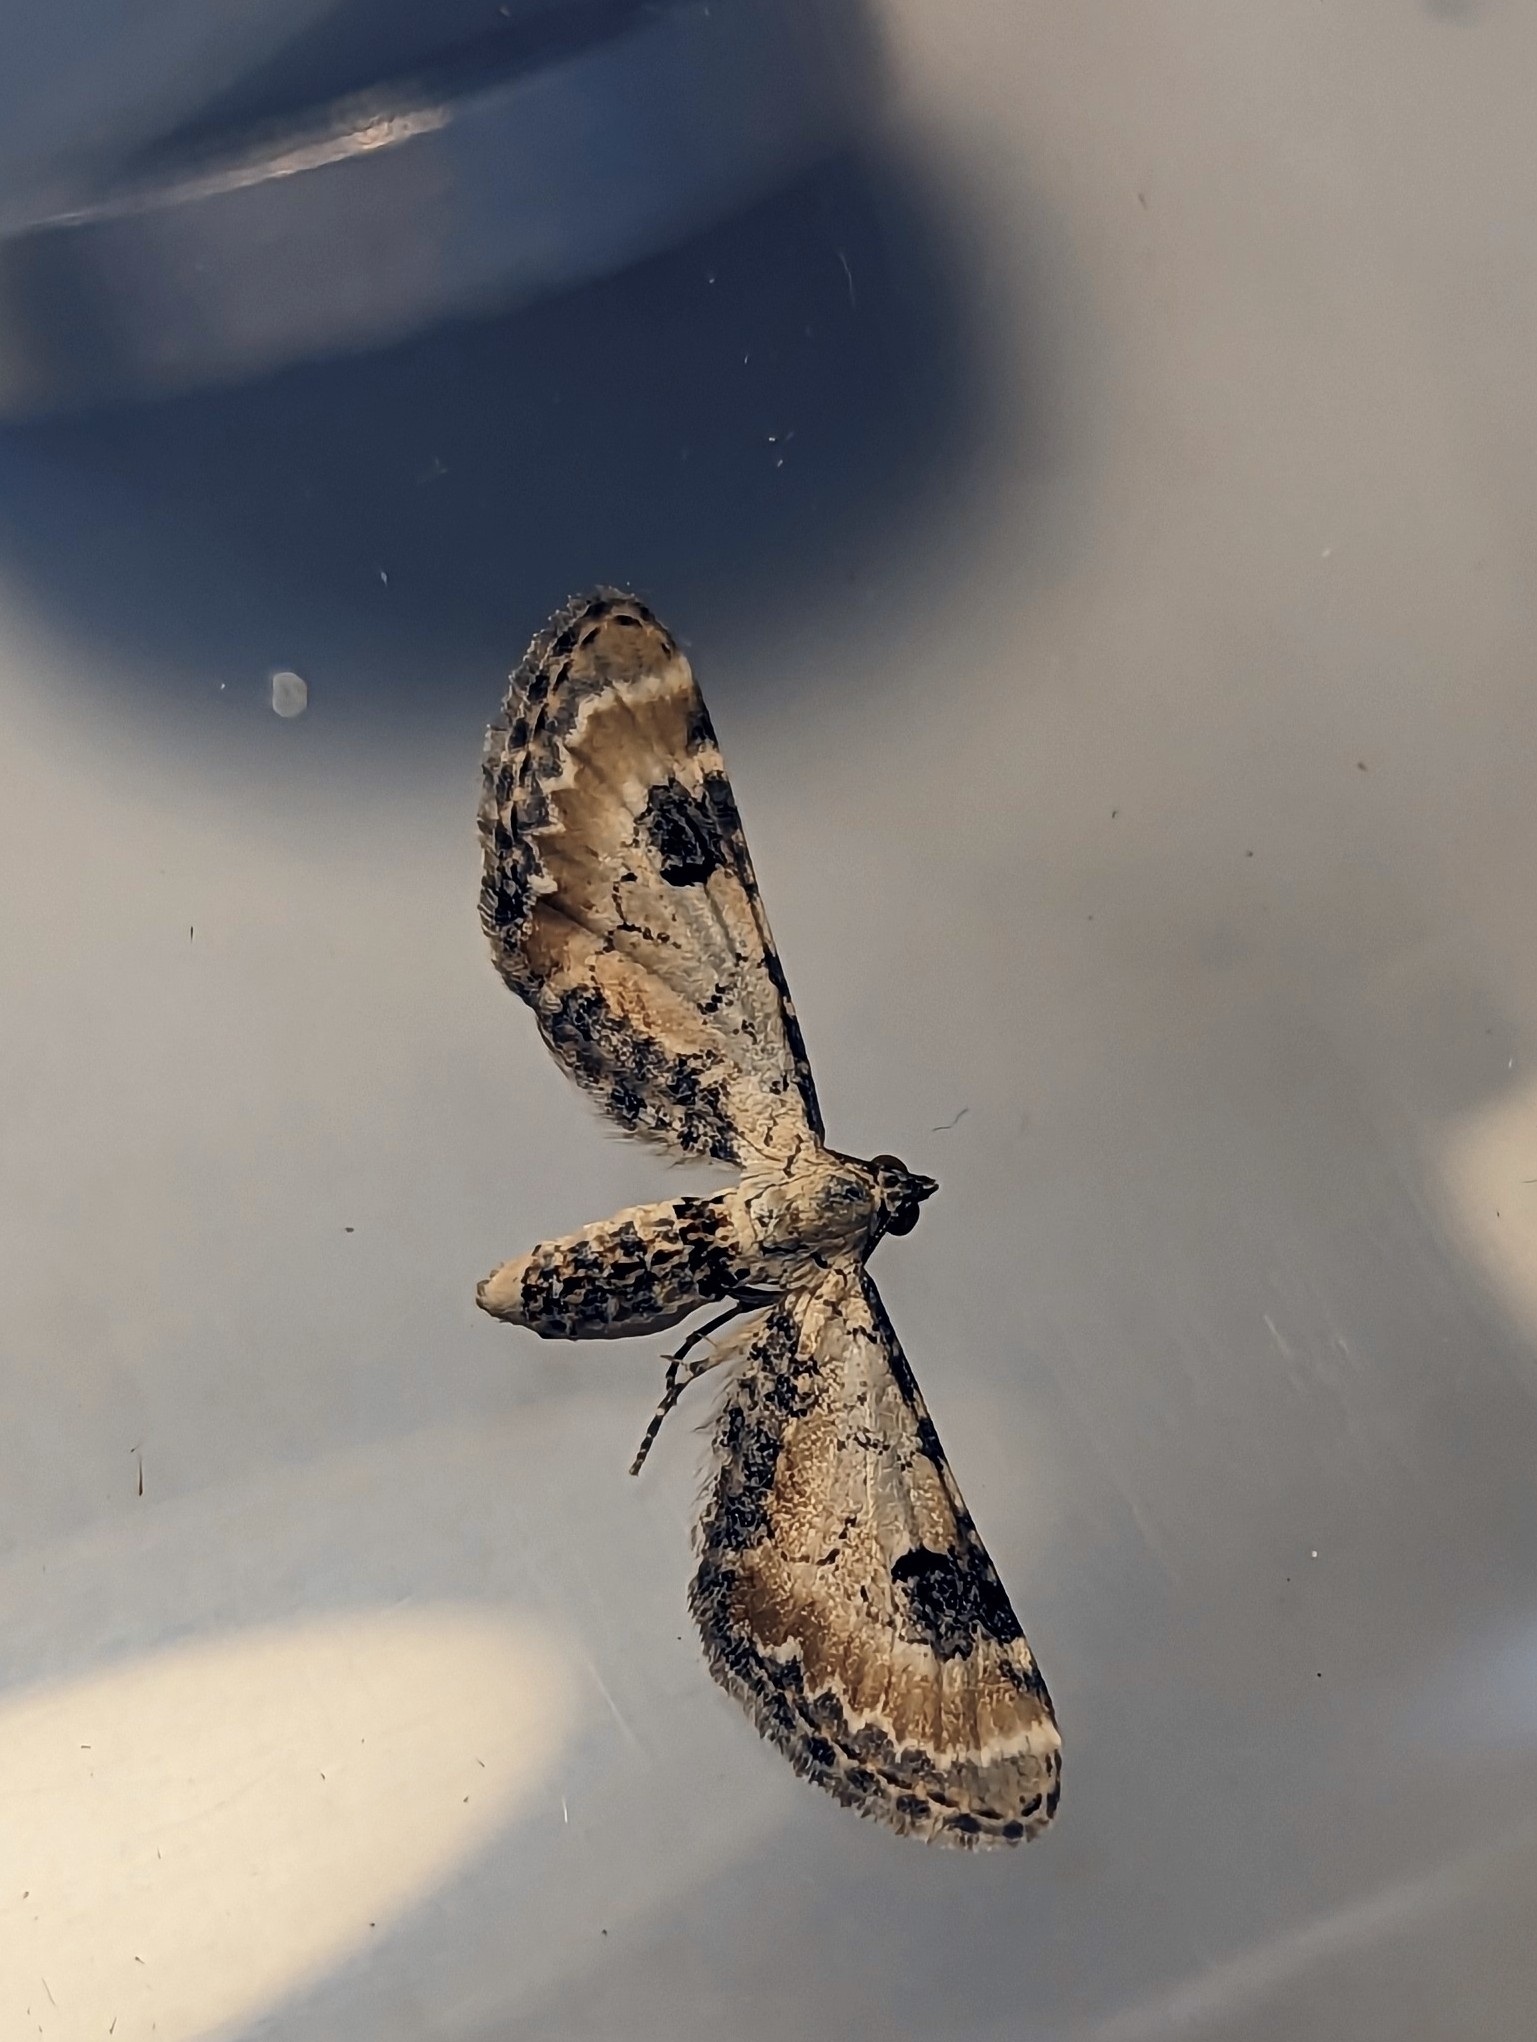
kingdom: Animalia
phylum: Arthropoda
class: Insecta
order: Lepidoptera
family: Geometridae
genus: Eupithecia
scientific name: Eupithecia centaureata
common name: Lime-speck pug
